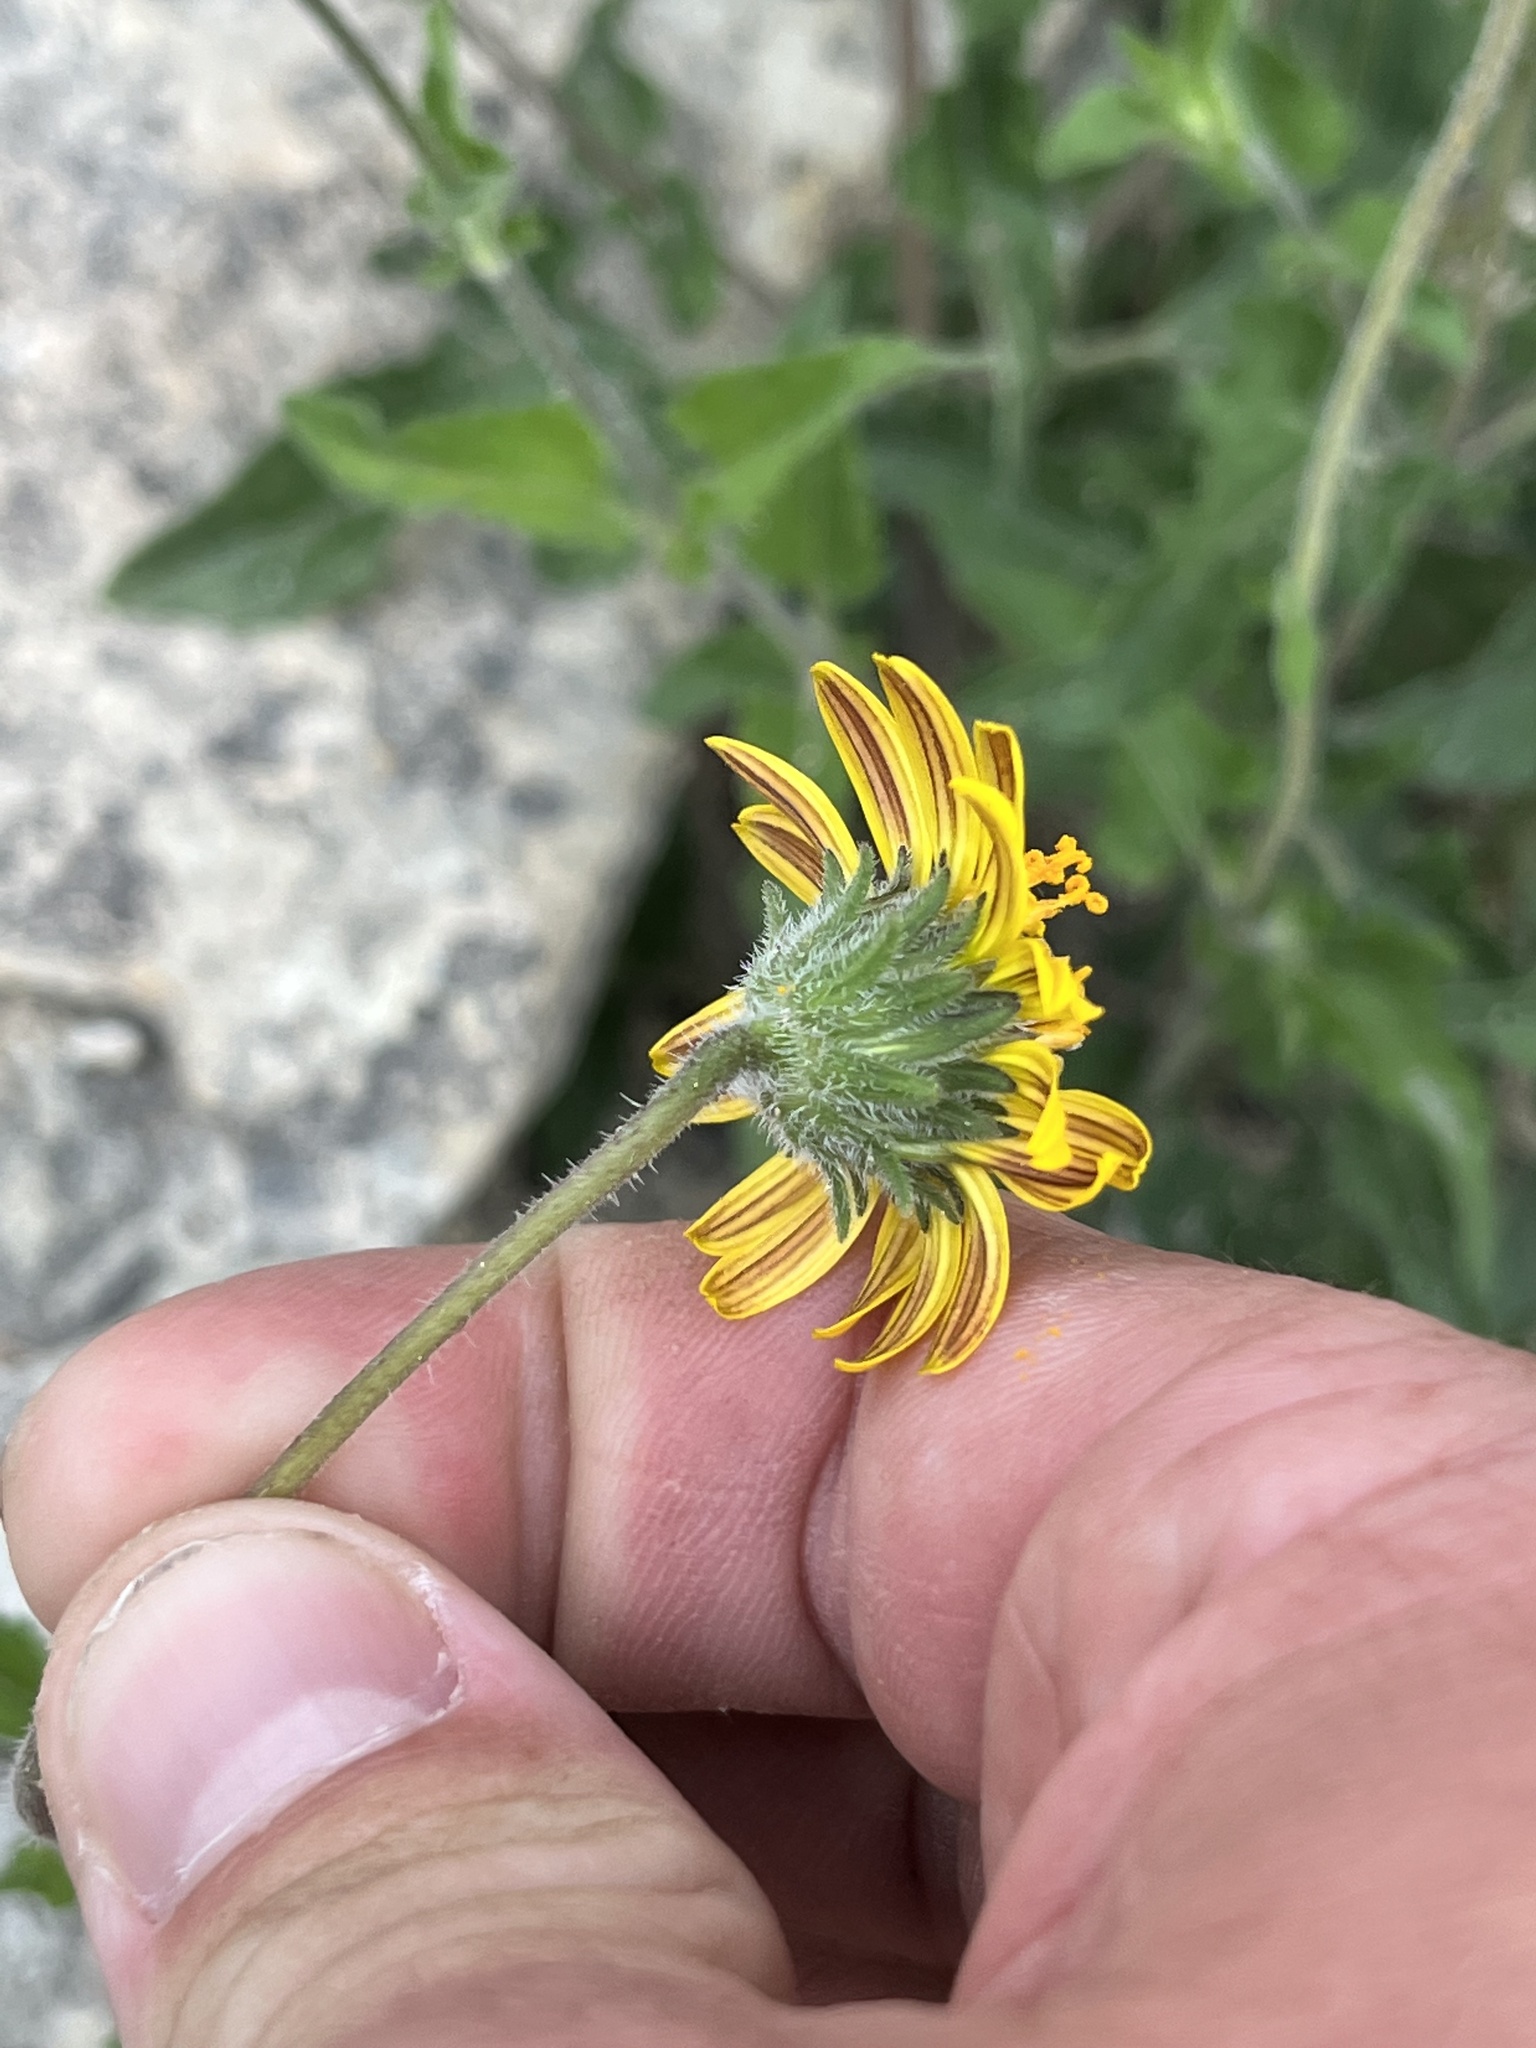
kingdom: Plantae
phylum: Tracheophyta
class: Magnoliopsida
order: Asterales
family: Asteraceae
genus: Simsia
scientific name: Simsia calva
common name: Awnless bush-sunflower
